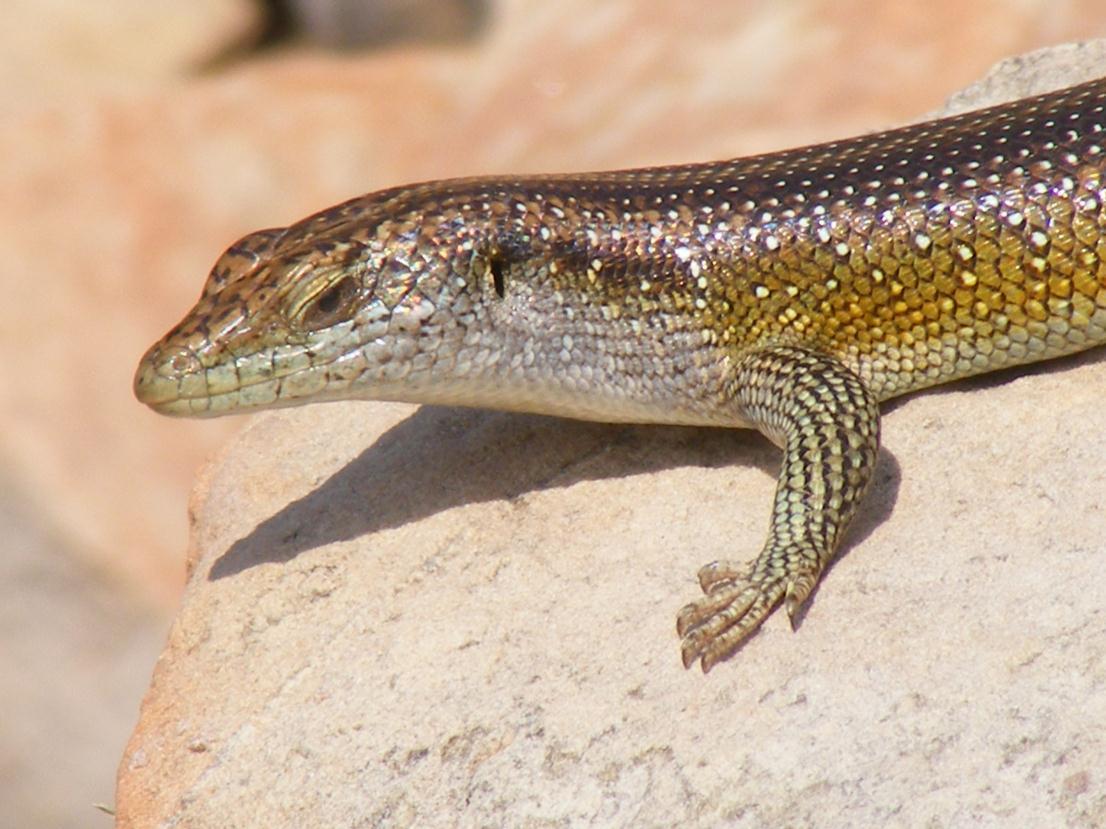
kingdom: Animalia
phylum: Chordata
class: Squamata
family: Scincidae
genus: Trachylepis
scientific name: Trachylepis margaritifera
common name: Rainbow skink
